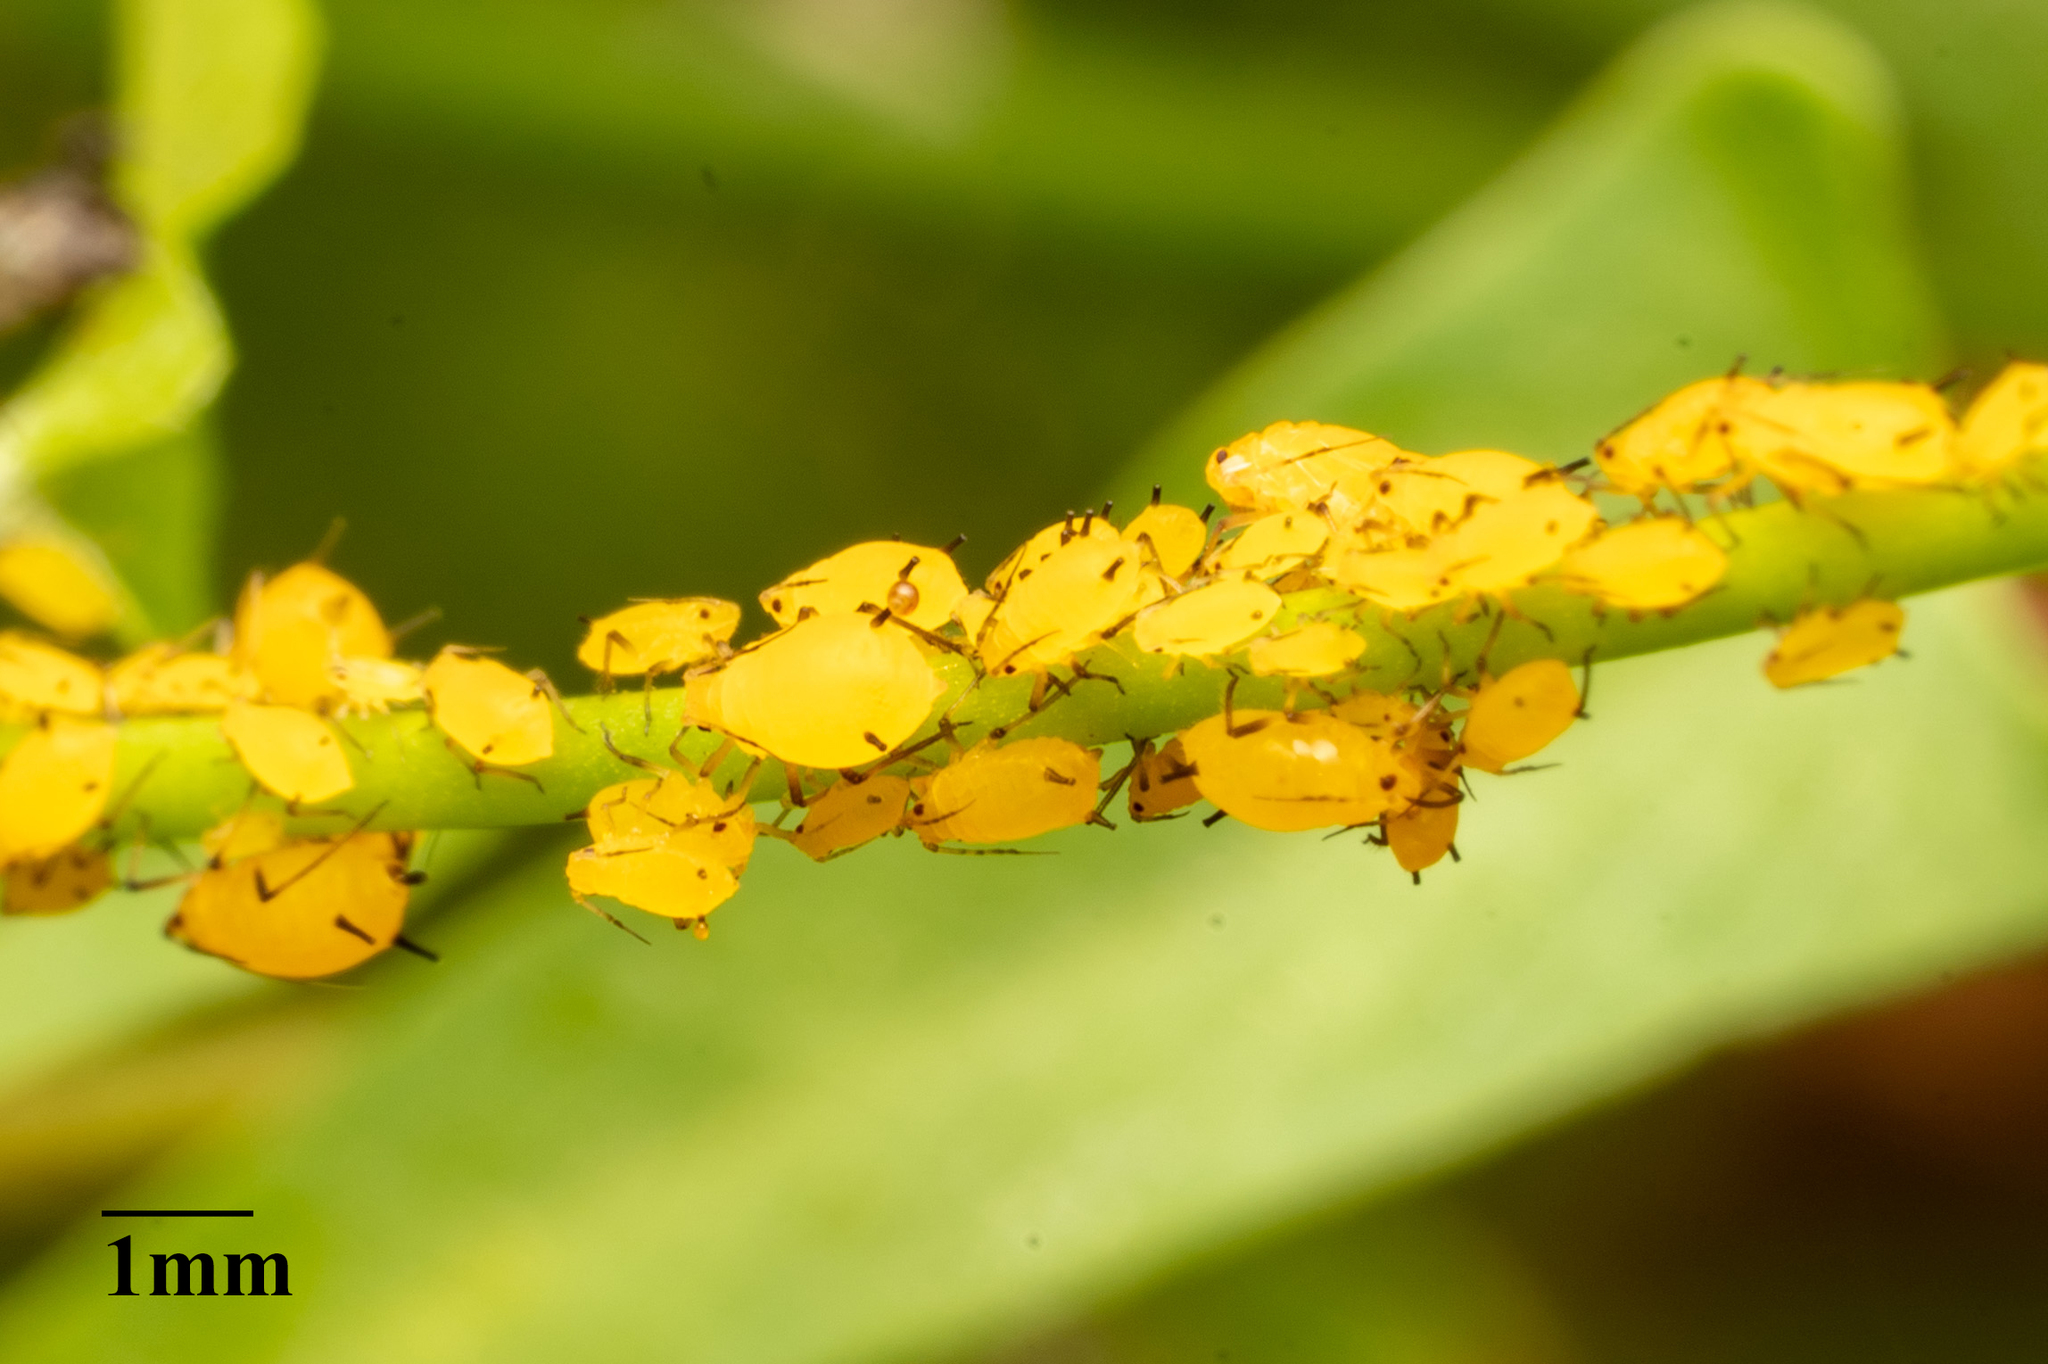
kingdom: Animalia
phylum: Arthropoda
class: Insecta
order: Hemiptera
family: Aphididae
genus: Aphis
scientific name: Aphis nerii
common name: Oleander aphid
